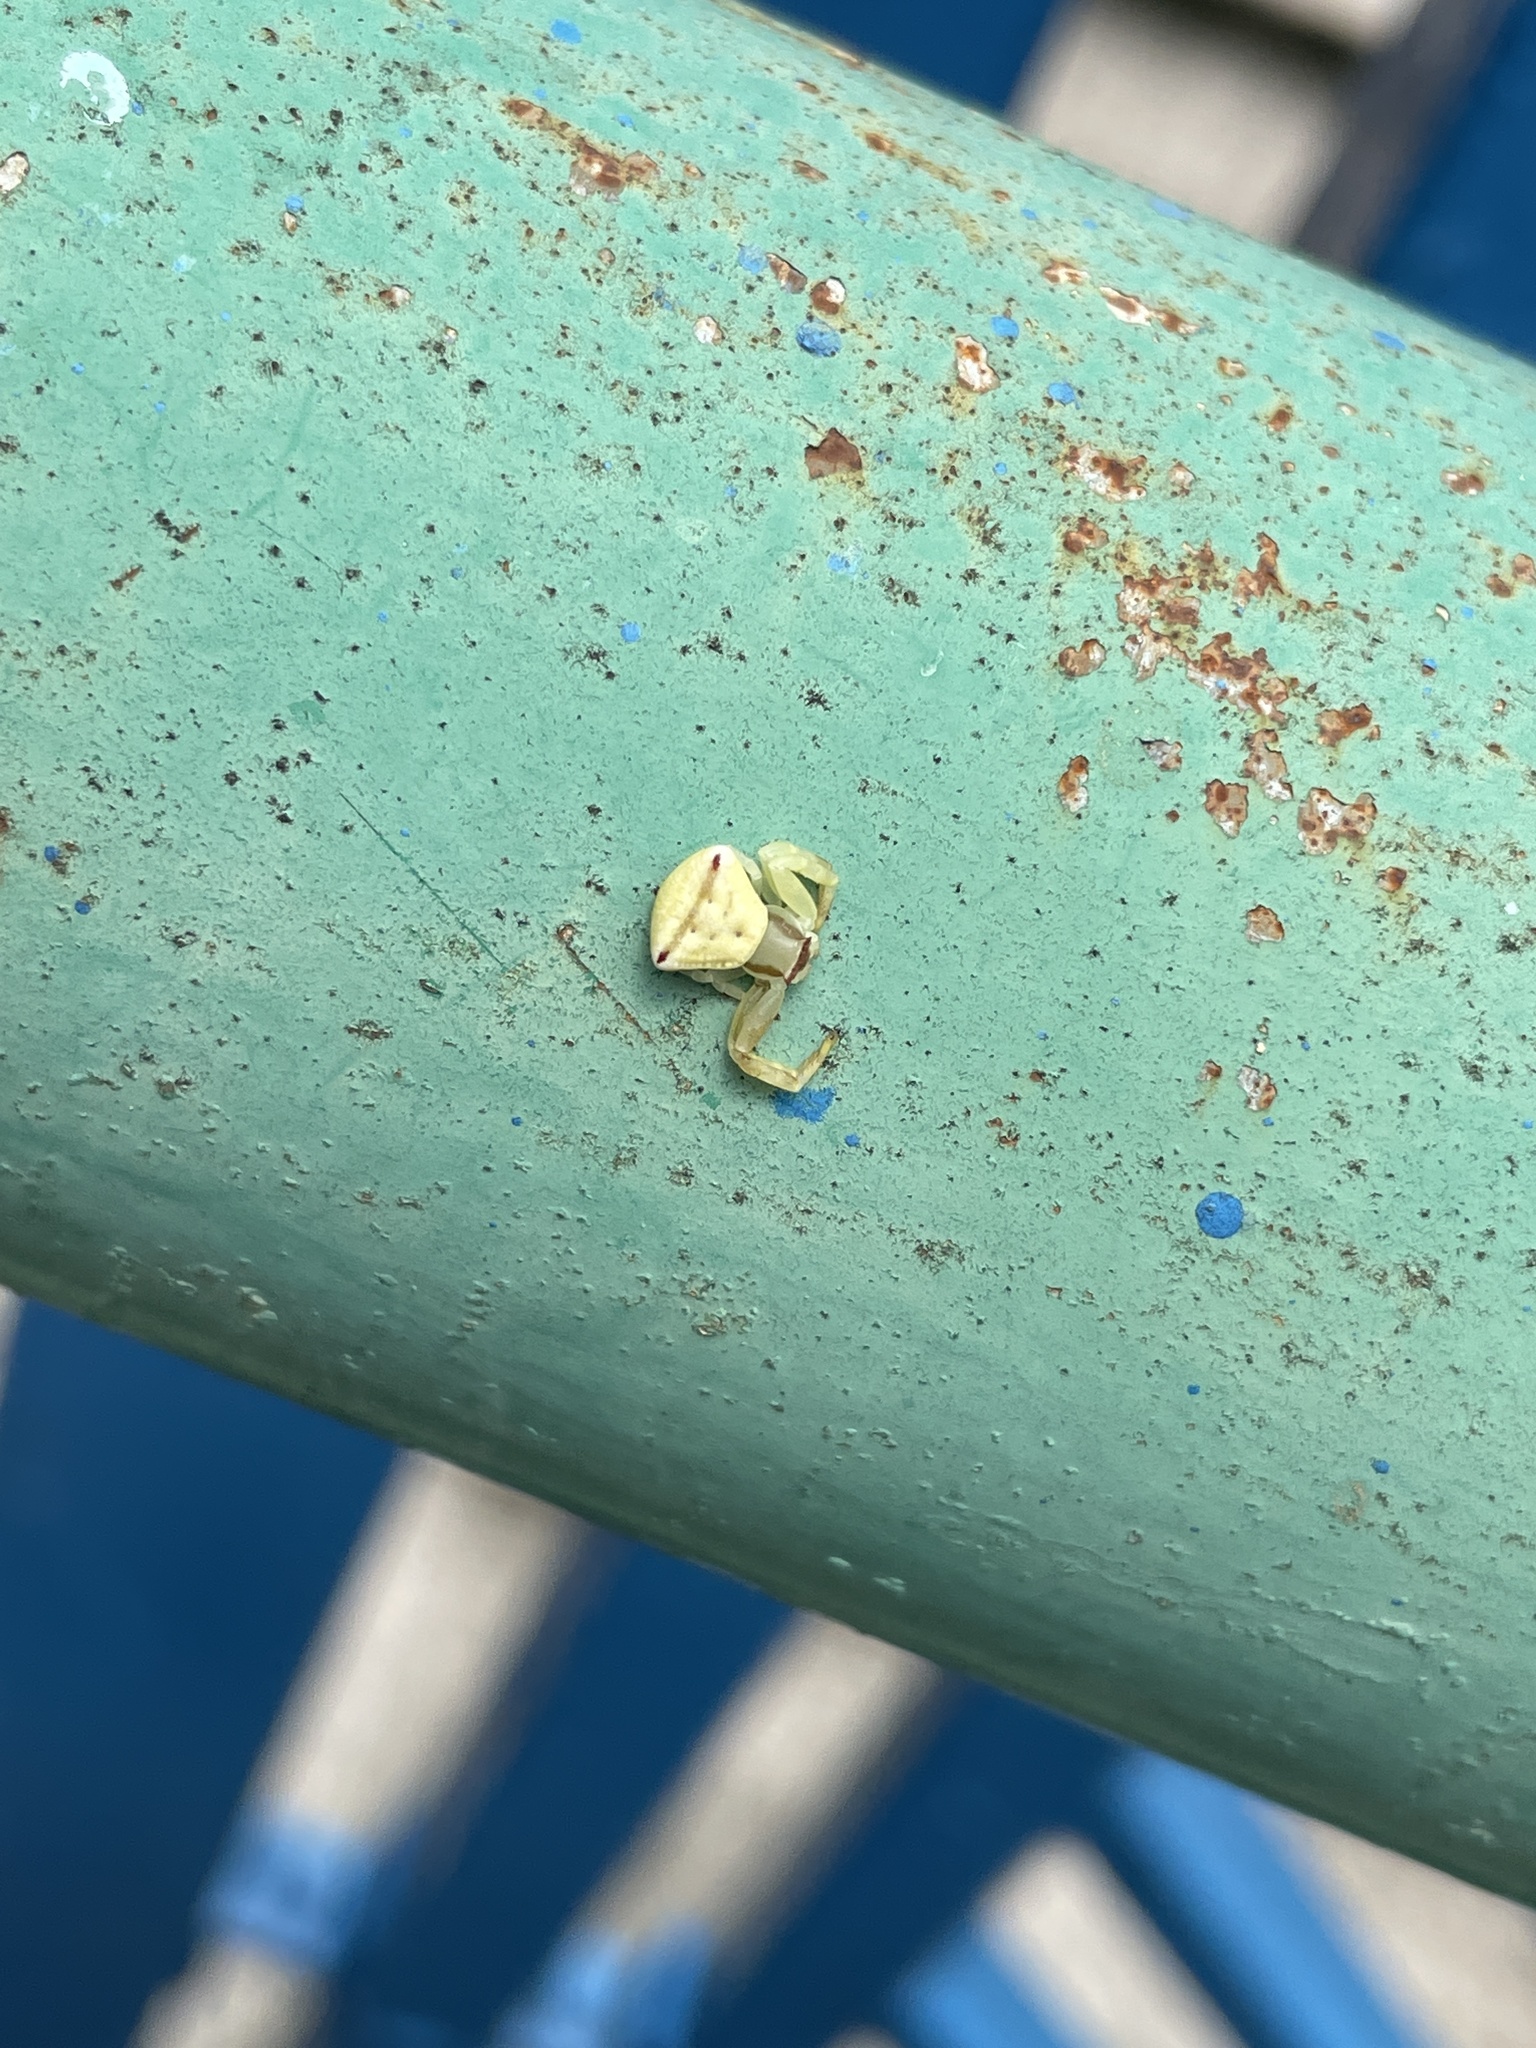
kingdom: Animalia
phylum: Arthropoda
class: Arachnida
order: Araneae
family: Thomisidae
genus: Thomisus
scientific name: Thomisus labefactus
